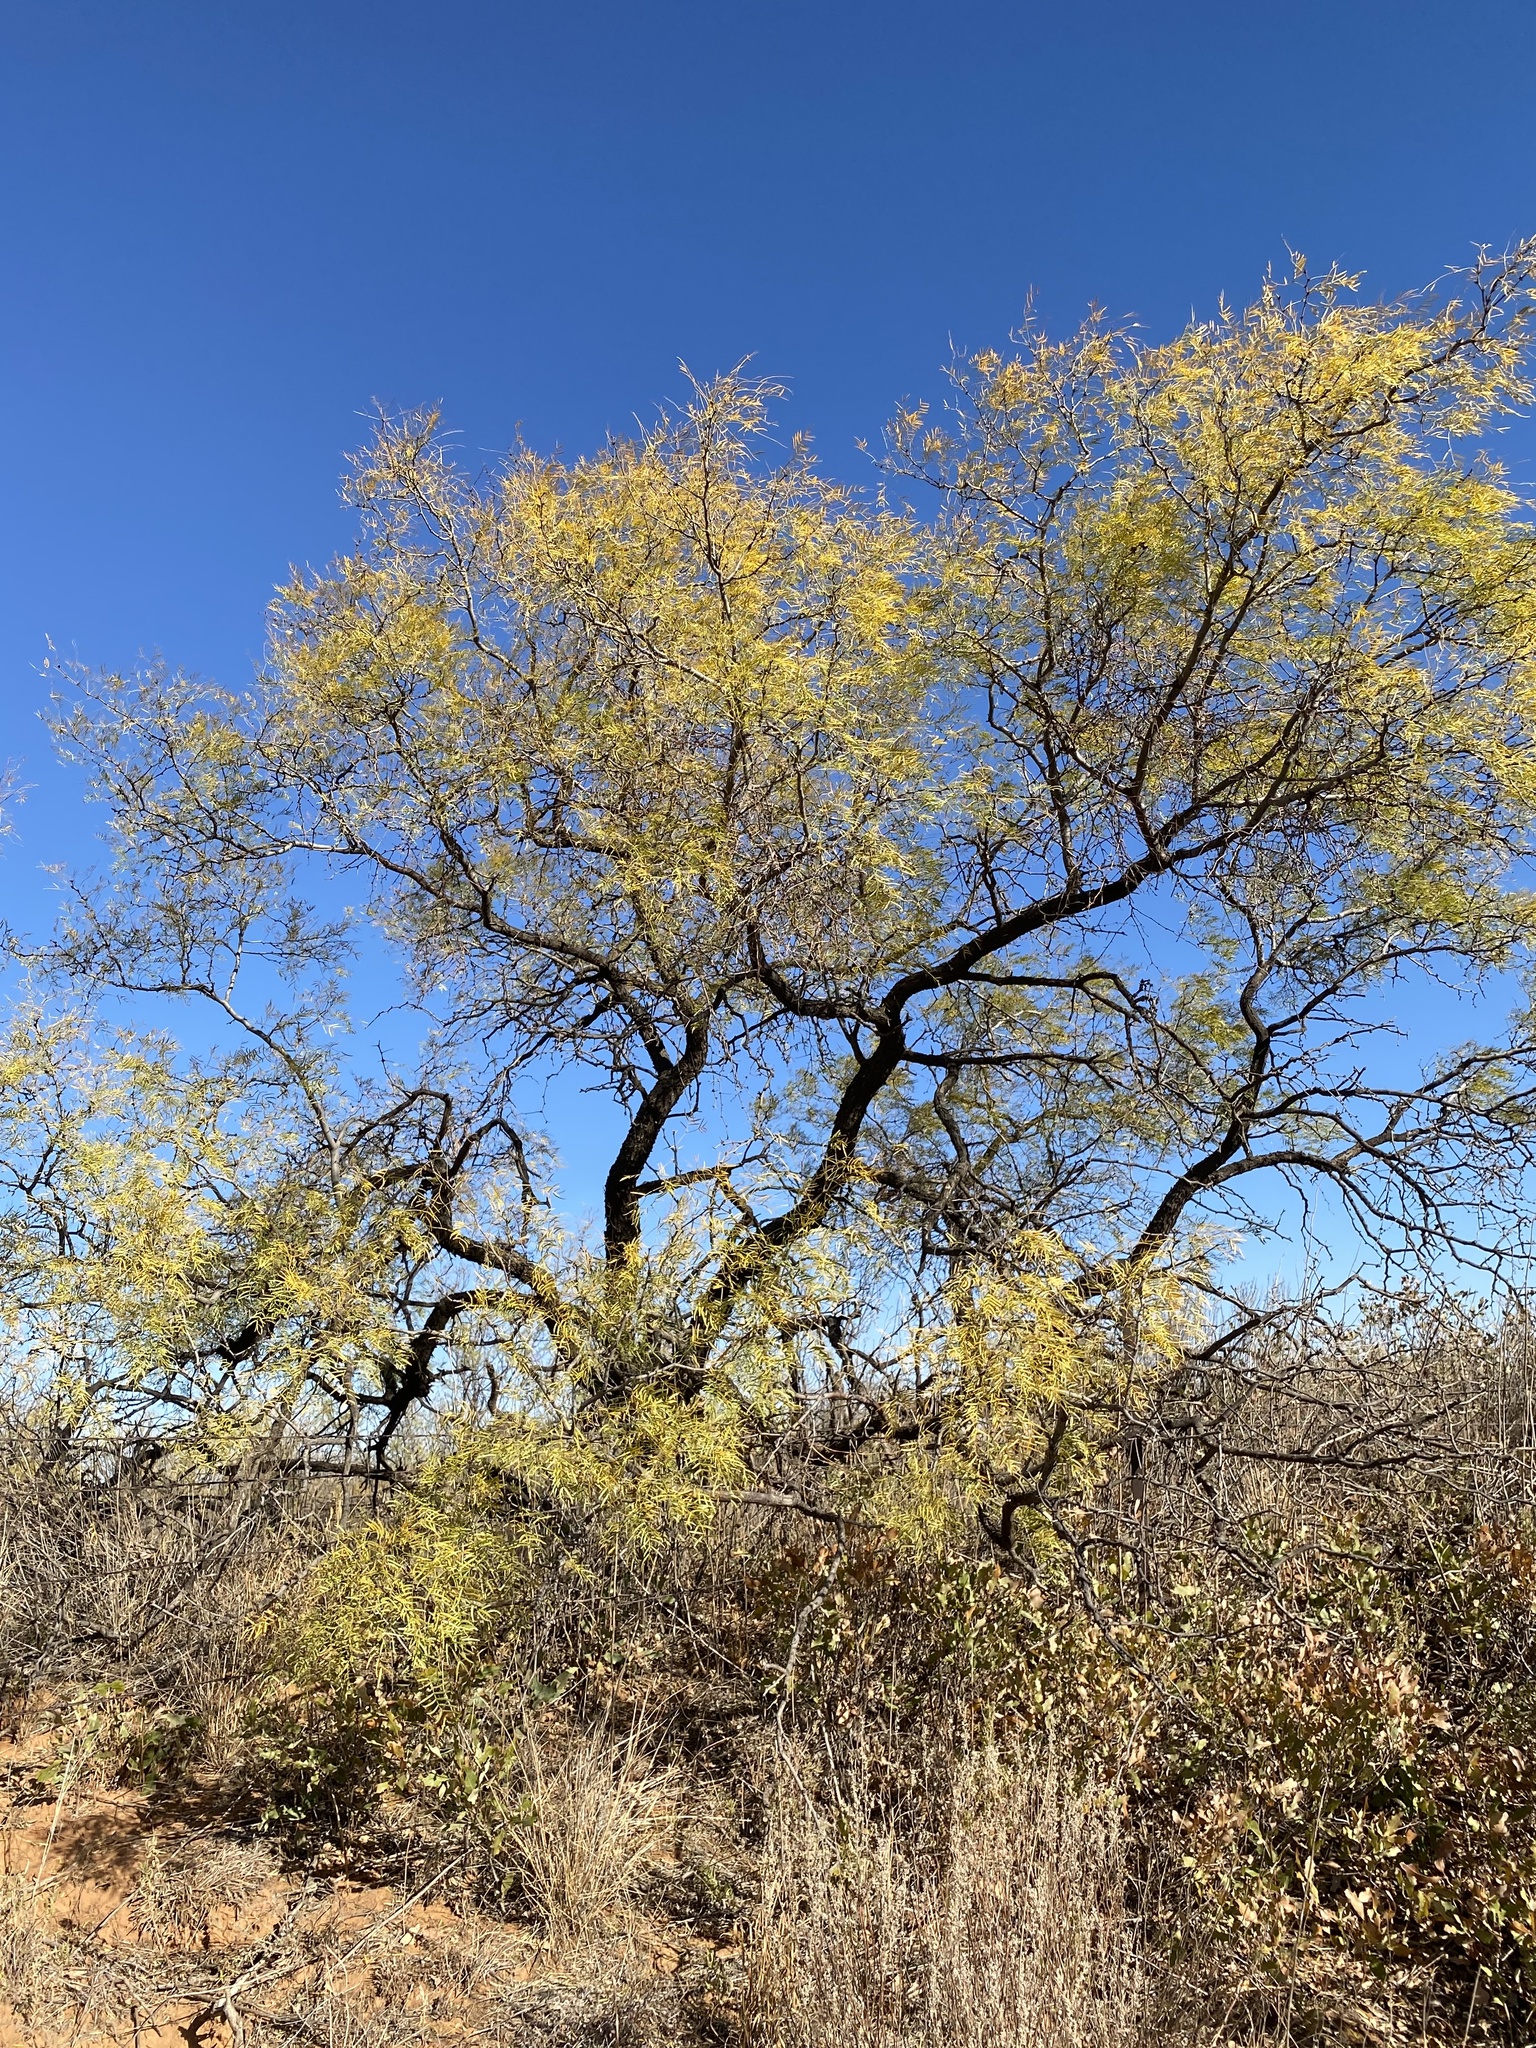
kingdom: Plantae
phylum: Tracheophyta
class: Magnoliopsida
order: Fabales
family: Fabaceae
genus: Prosopis
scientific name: Prosopis glandulosa
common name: Honey mesquite
